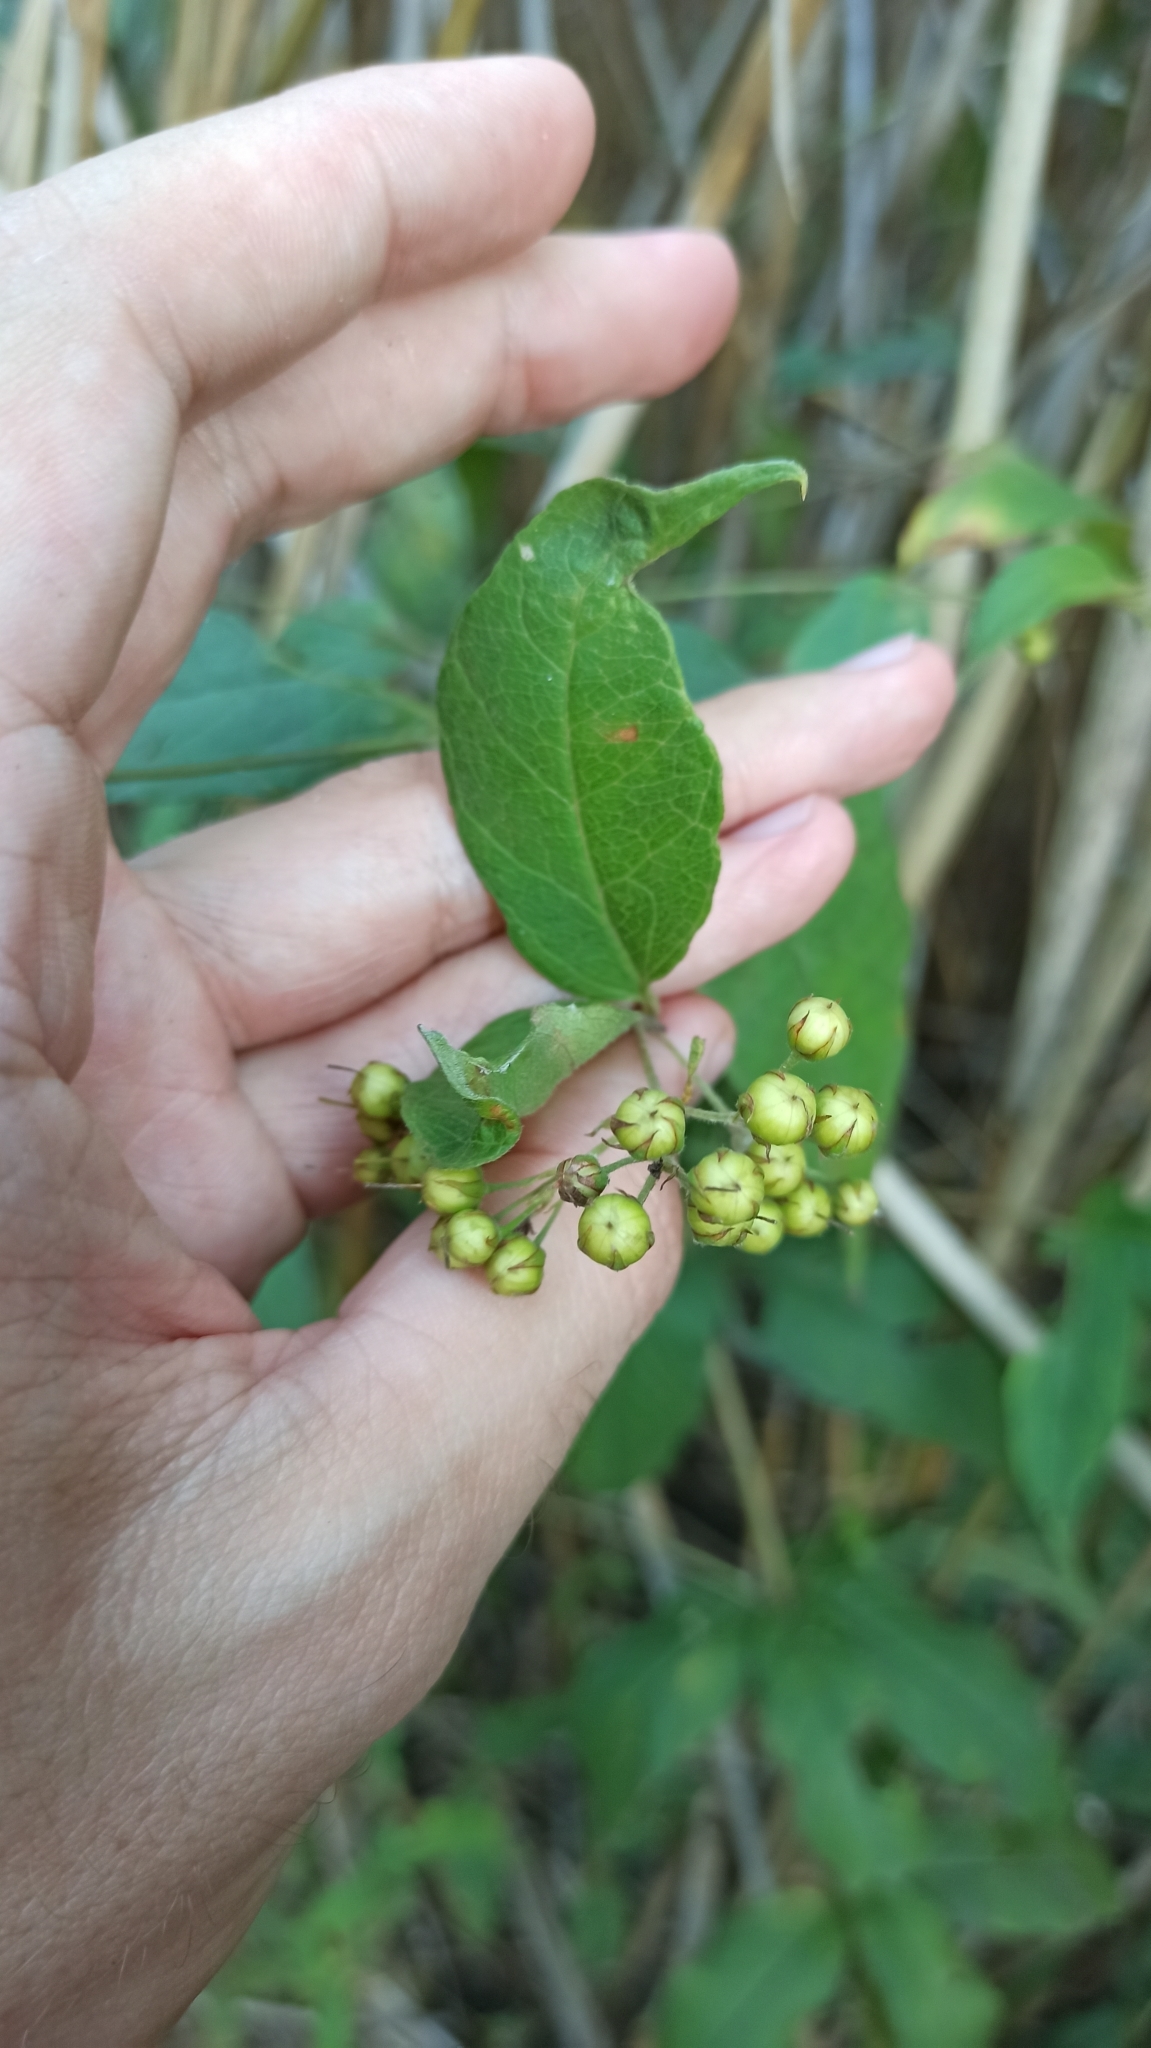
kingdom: Plantae
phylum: Tracheophyta
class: Magnoliopsida
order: Ericales
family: Primulaceae
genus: Lysimachia
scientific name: Lysimachia vulgaris
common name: Yellow loosestrife
